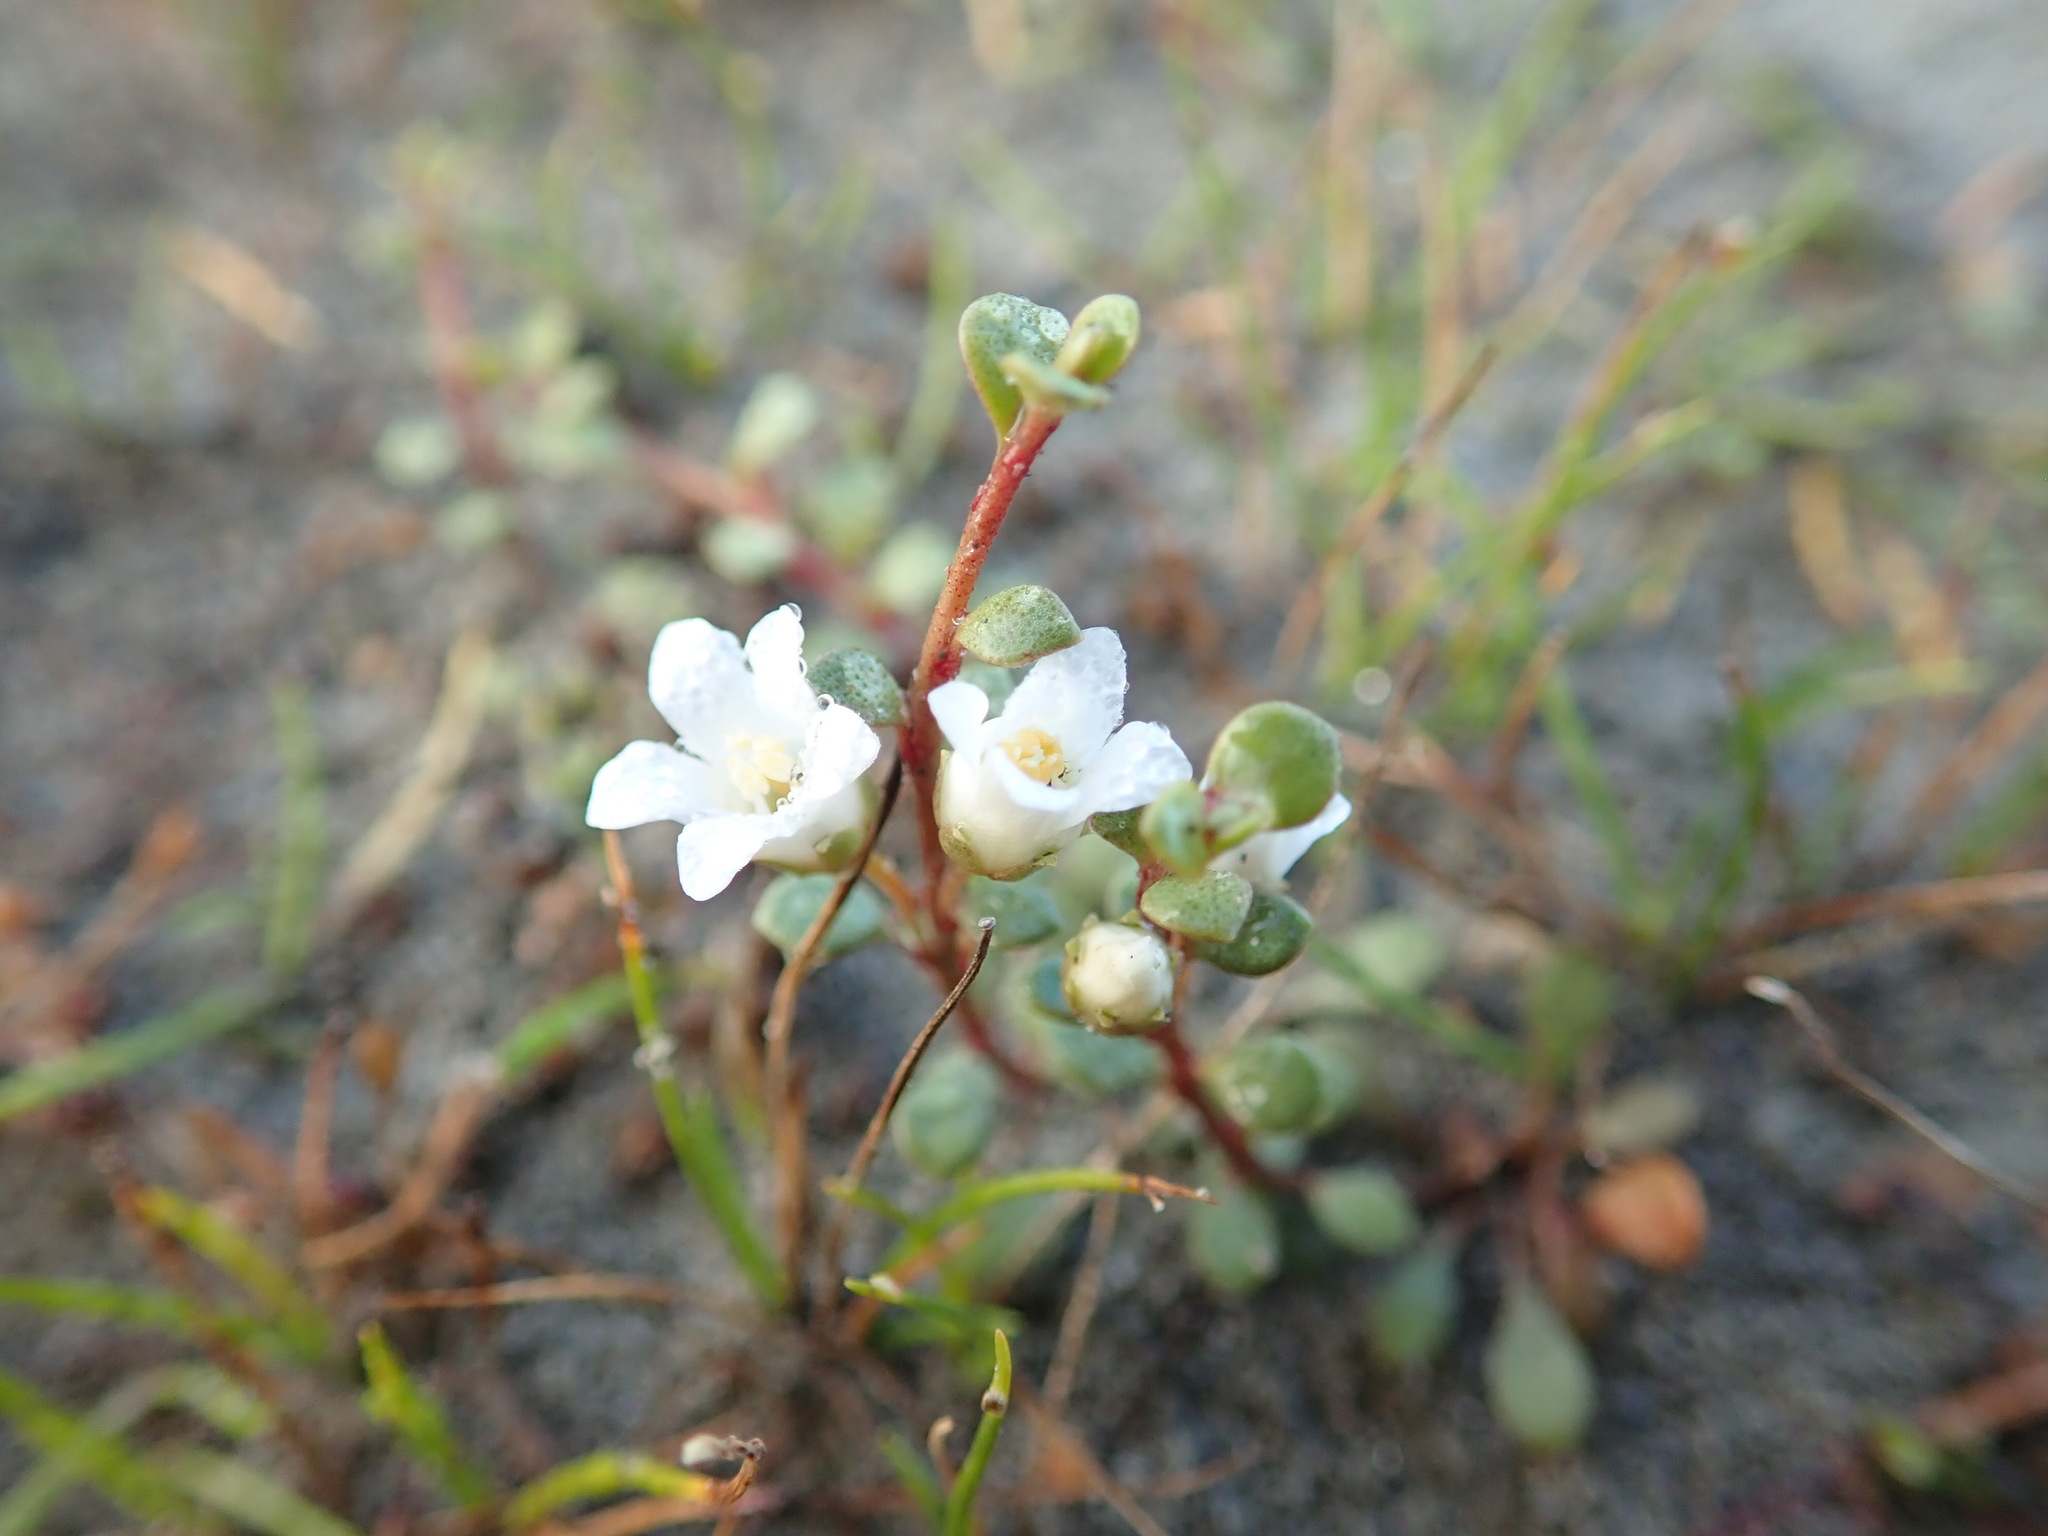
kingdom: Plantae
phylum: Tracheophyta
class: Magnoliopsida
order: Ericales
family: Primulaceae
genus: Samolus
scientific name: Samolus repens
